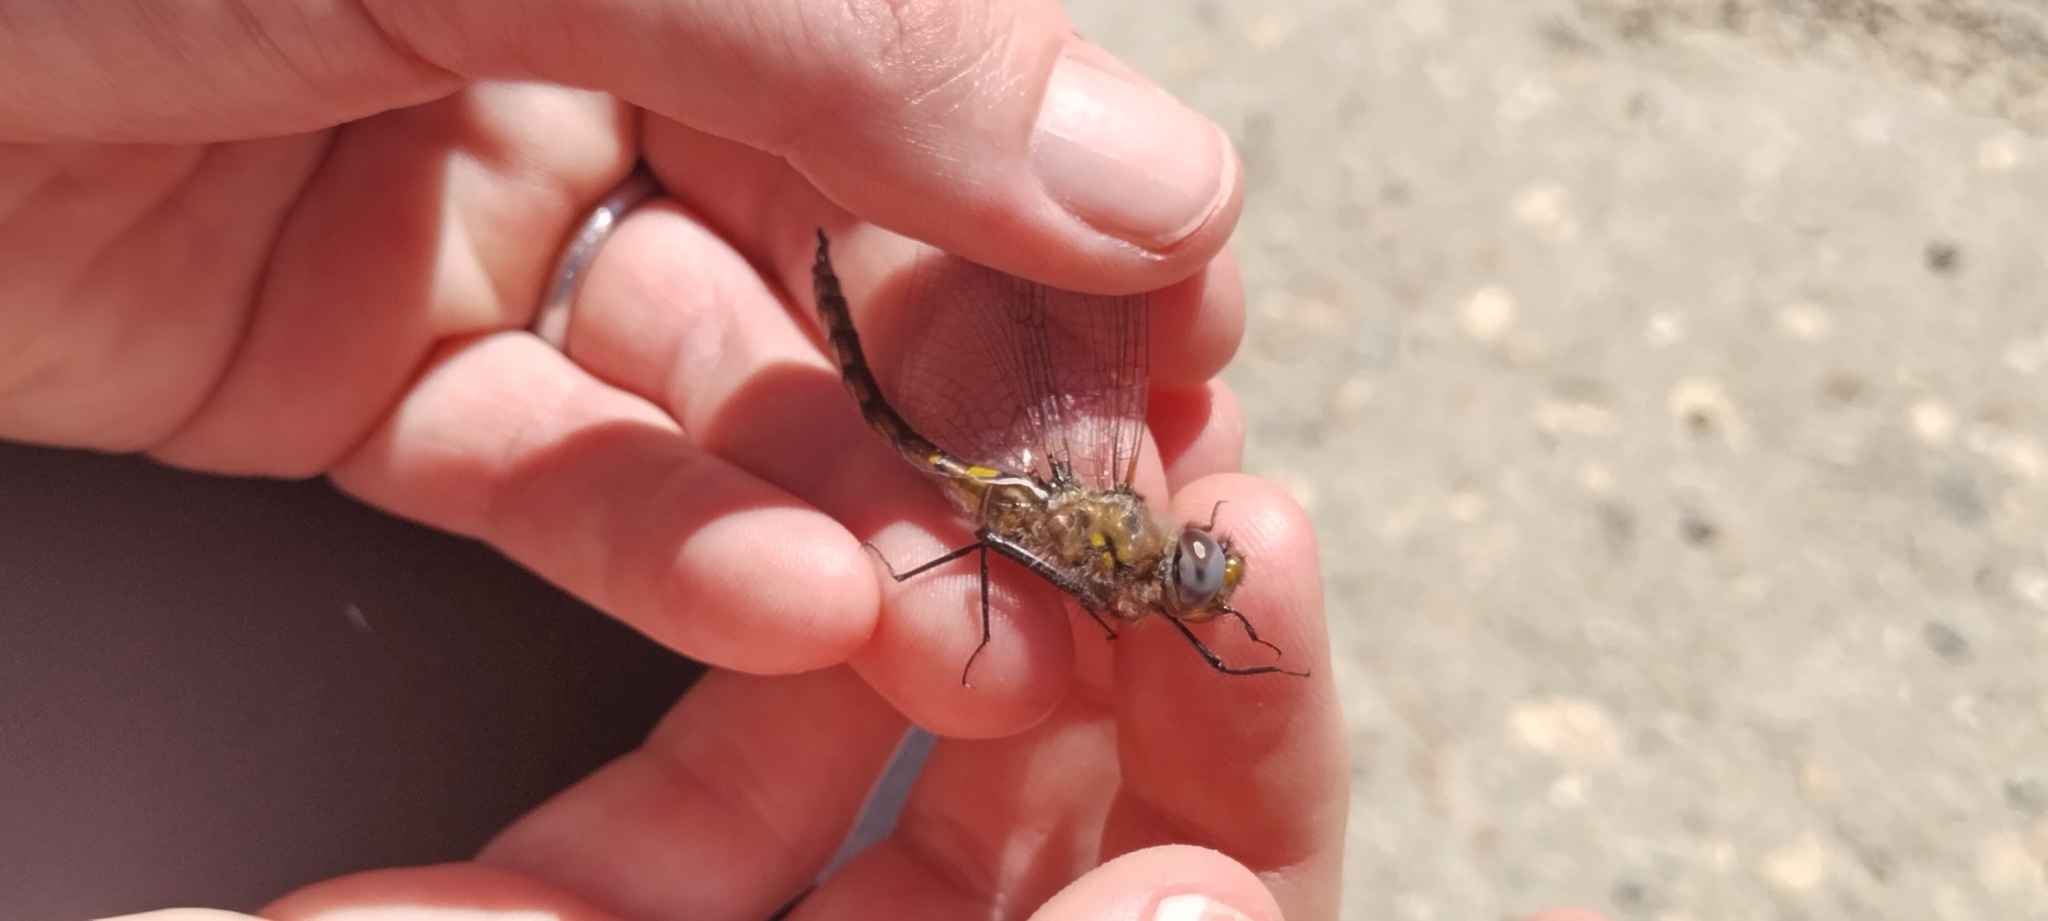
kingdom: Animalia
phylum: Arthropoda
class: Insecta
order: Odonata
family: Corduliidae
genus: Epitheca
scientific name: Epitheca cynosura
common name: Common baskettail
